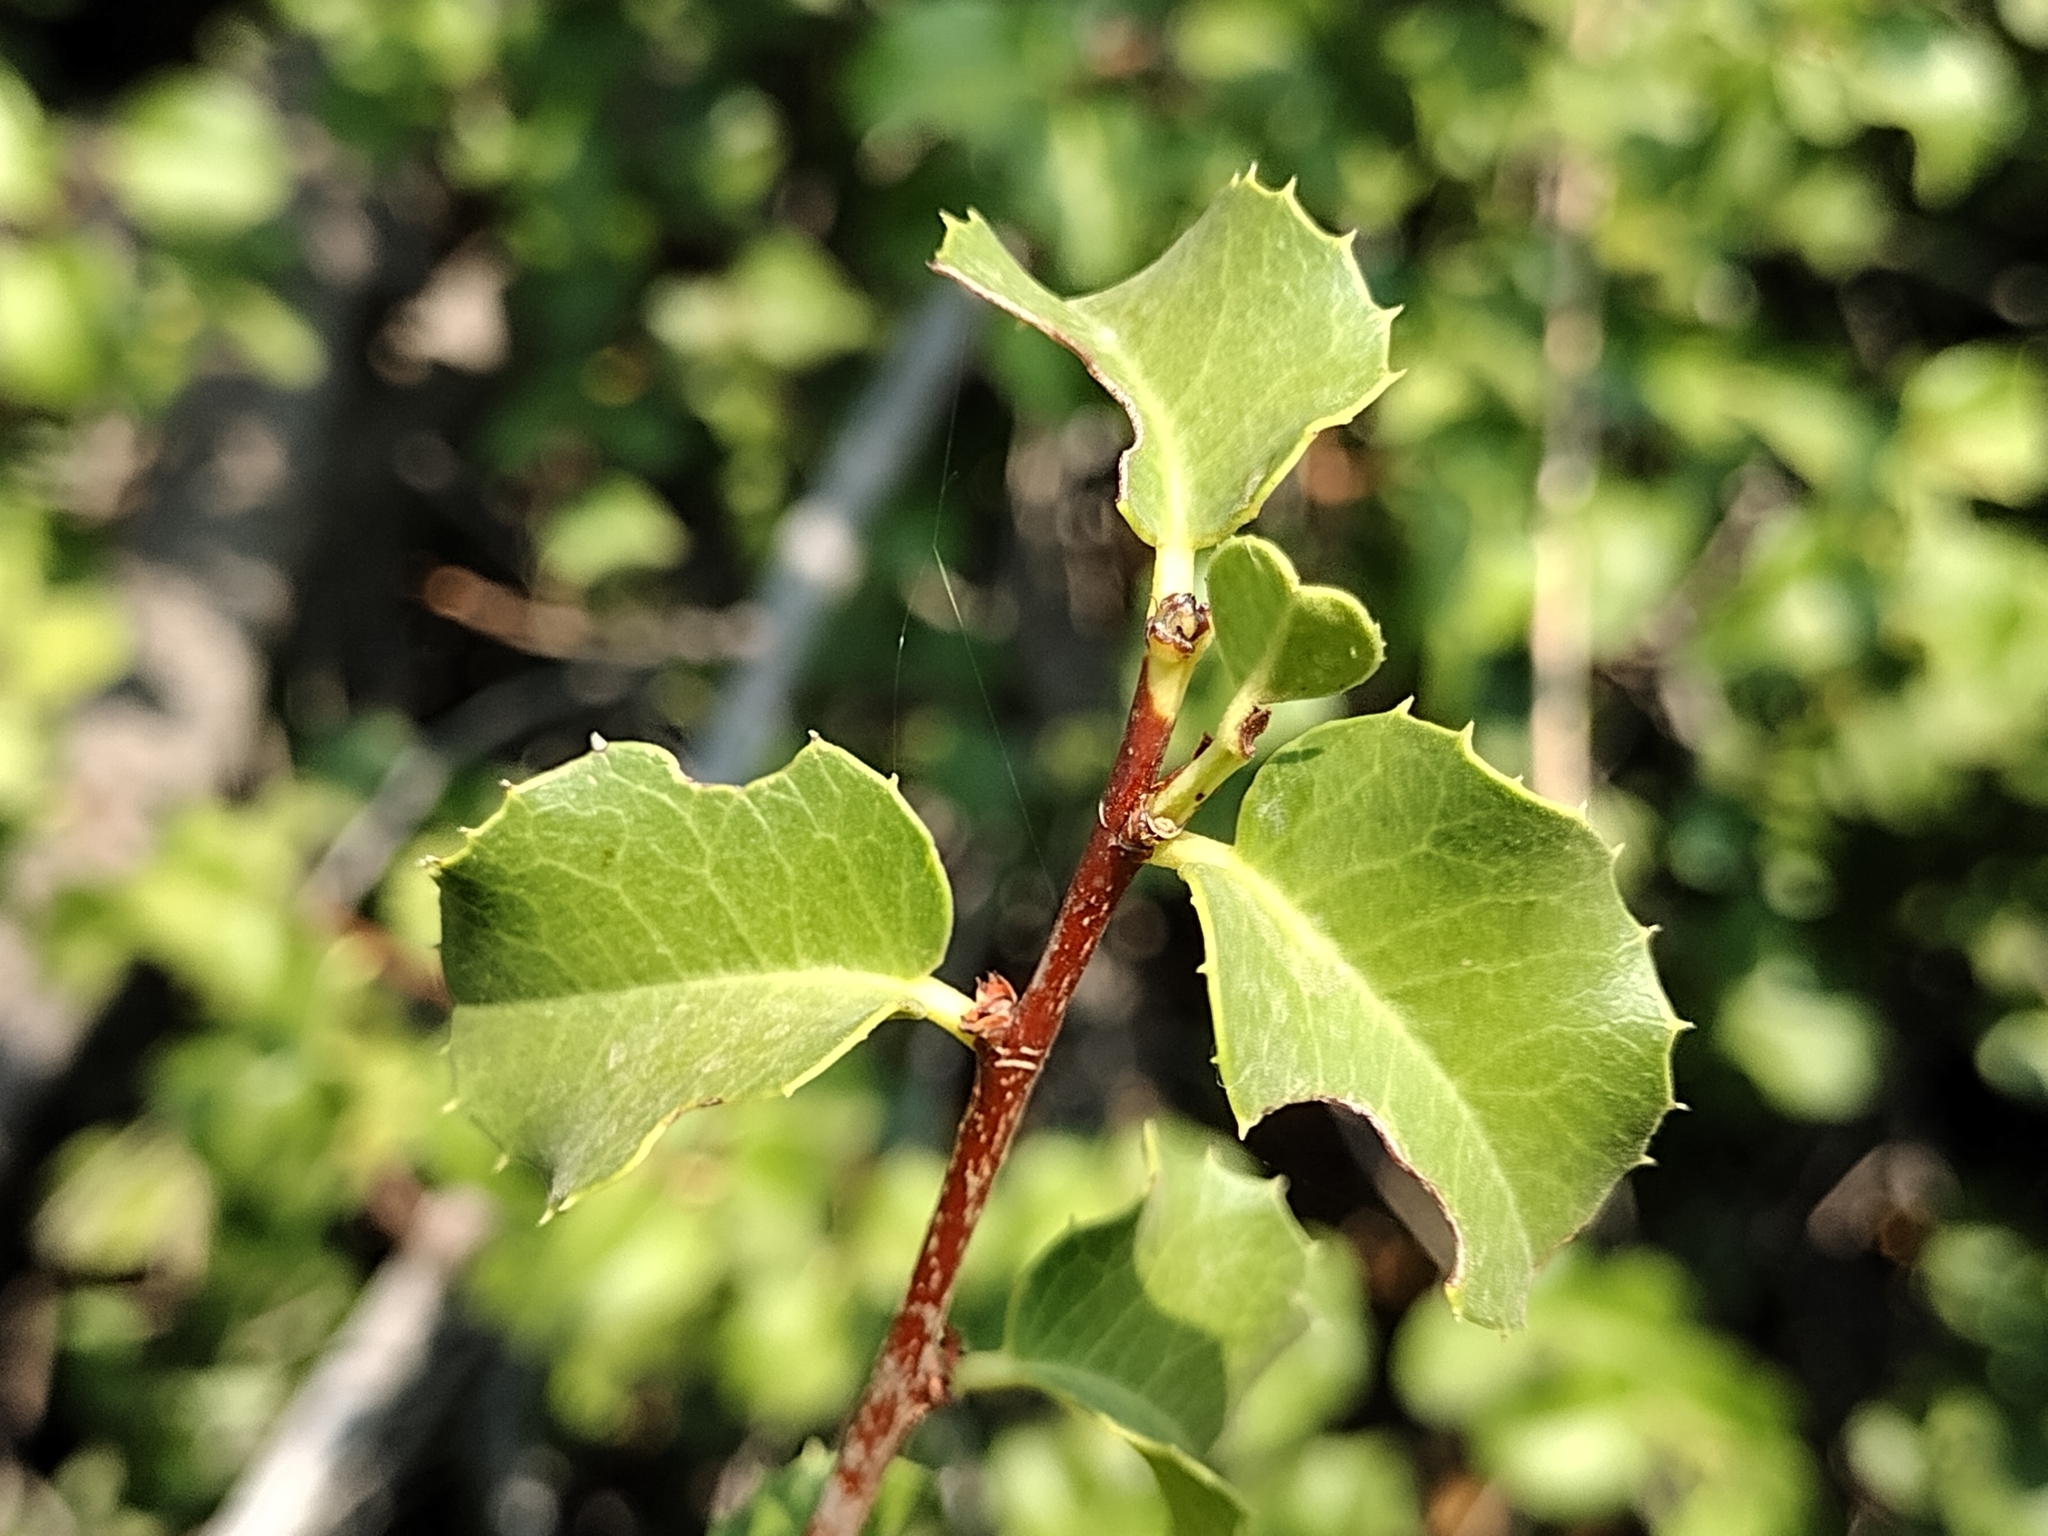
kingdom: Plantae
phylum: Tracheophyta
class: Magnoliopsida
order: Rosales
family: Rosaceae
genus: Prunus
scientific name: Prunus ilicifolia
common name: Hollyleaf cherry
